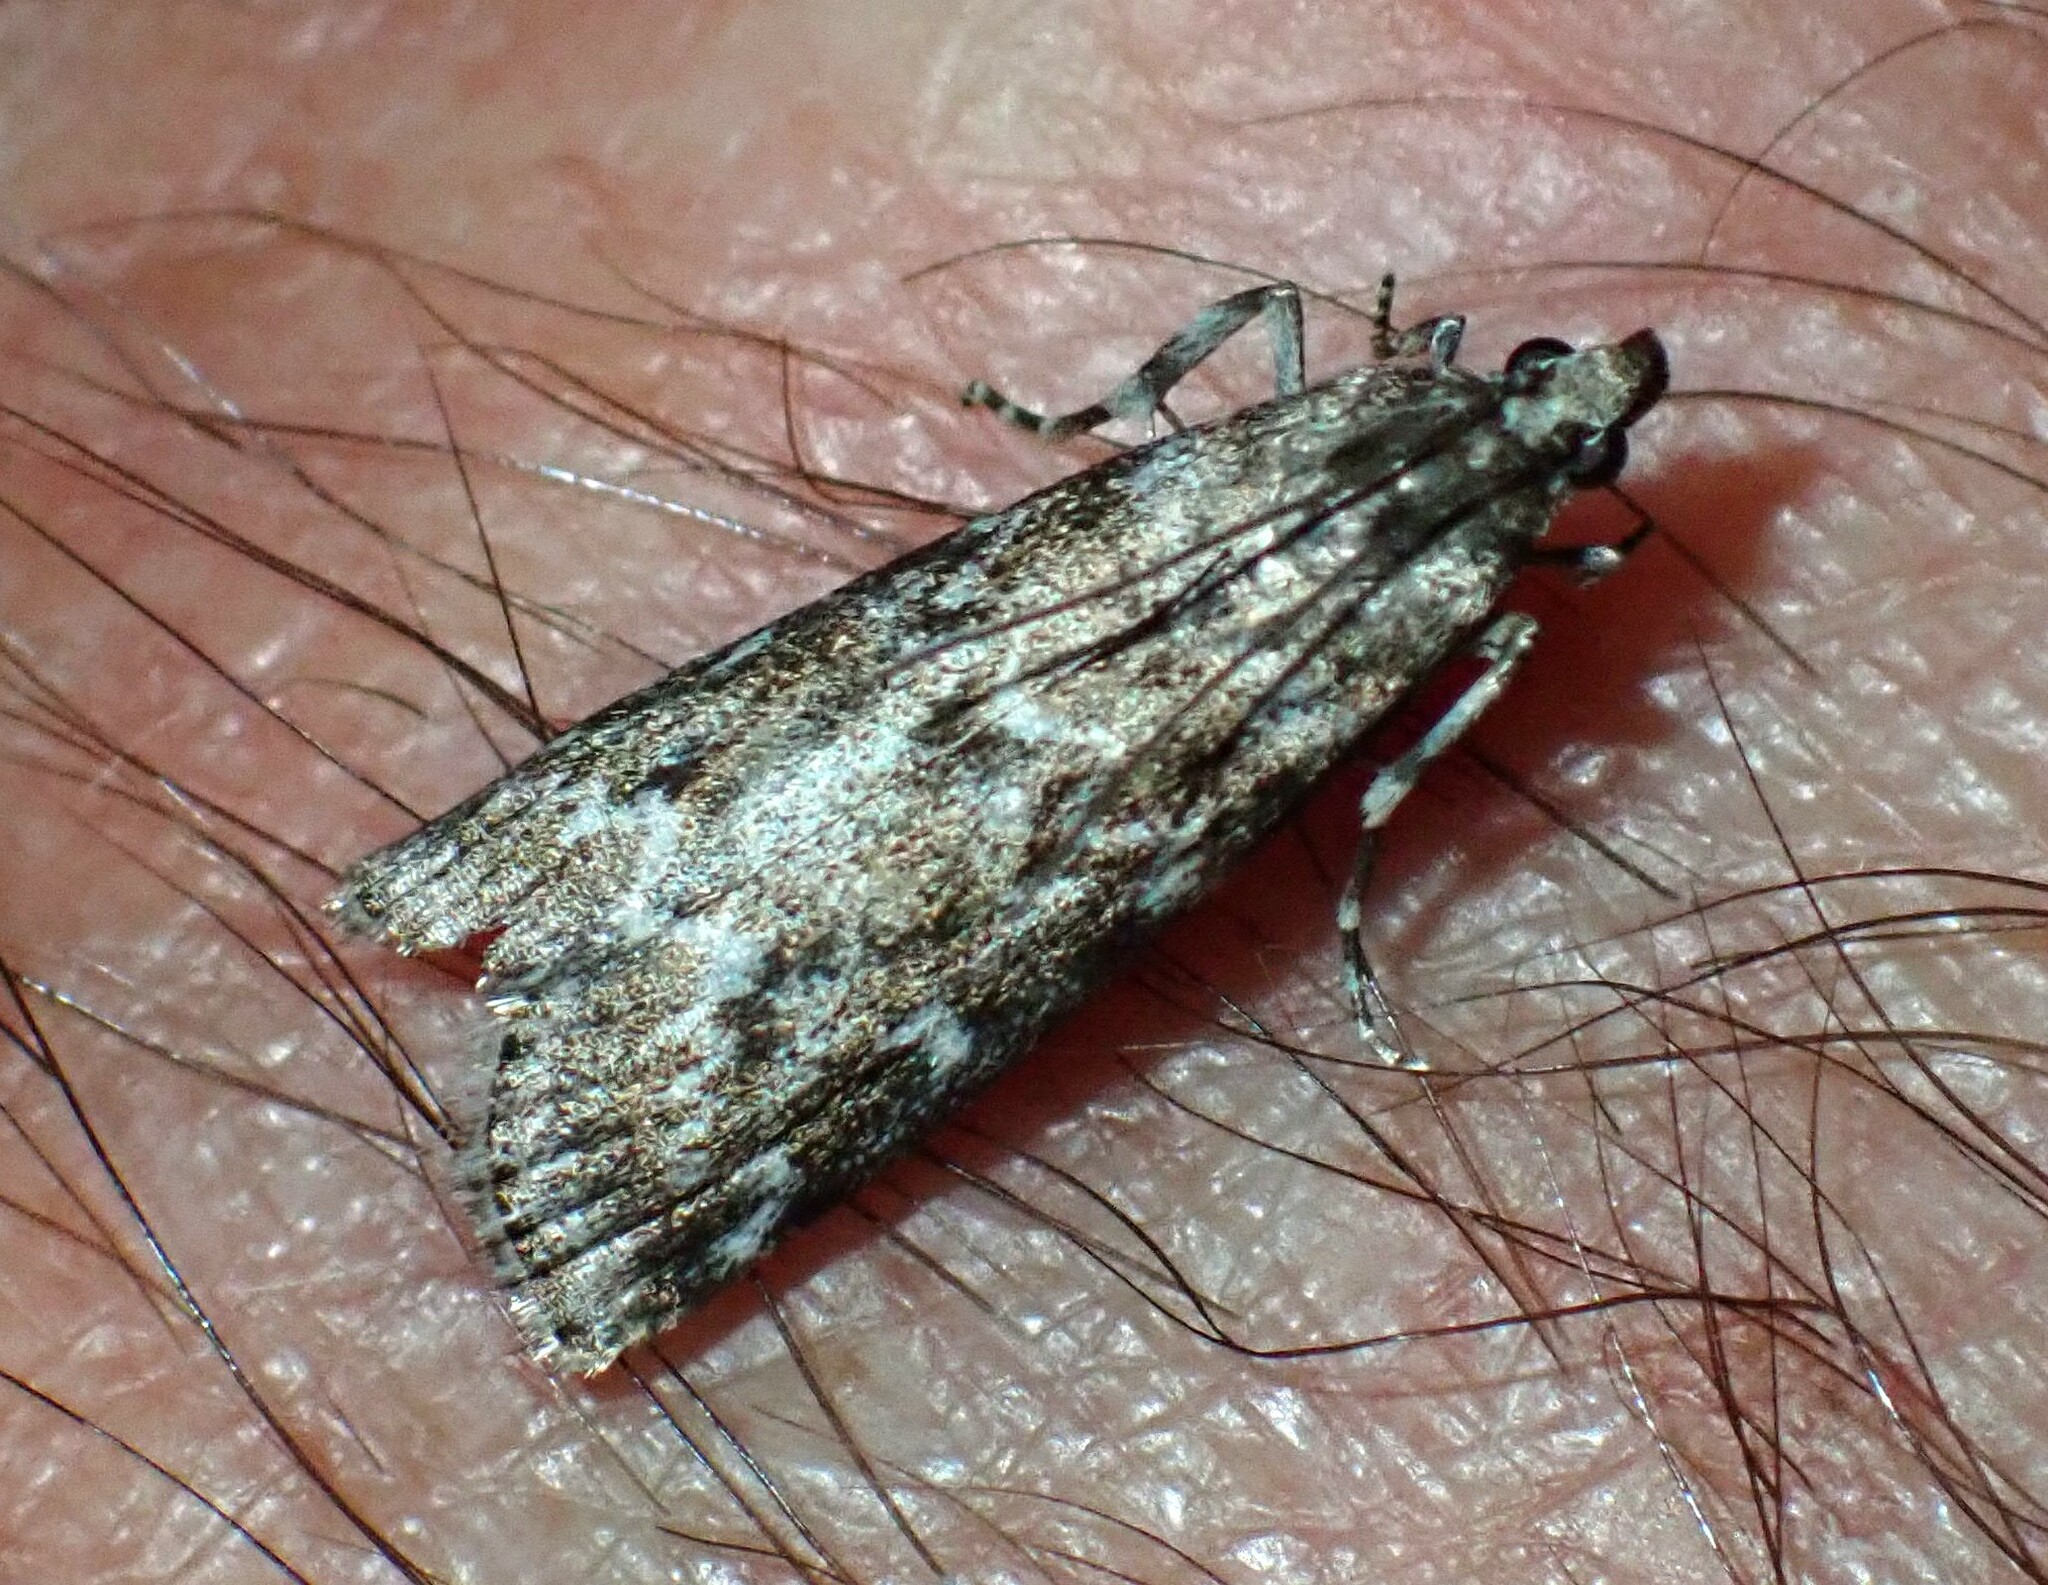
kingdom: Animalia
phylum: Arthropoda
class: Insecta
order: Lepidoptera
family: Pyralidae
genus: Dioryctria
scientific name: Dioryctria reniculelloides
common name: Spruce coneworm moth
